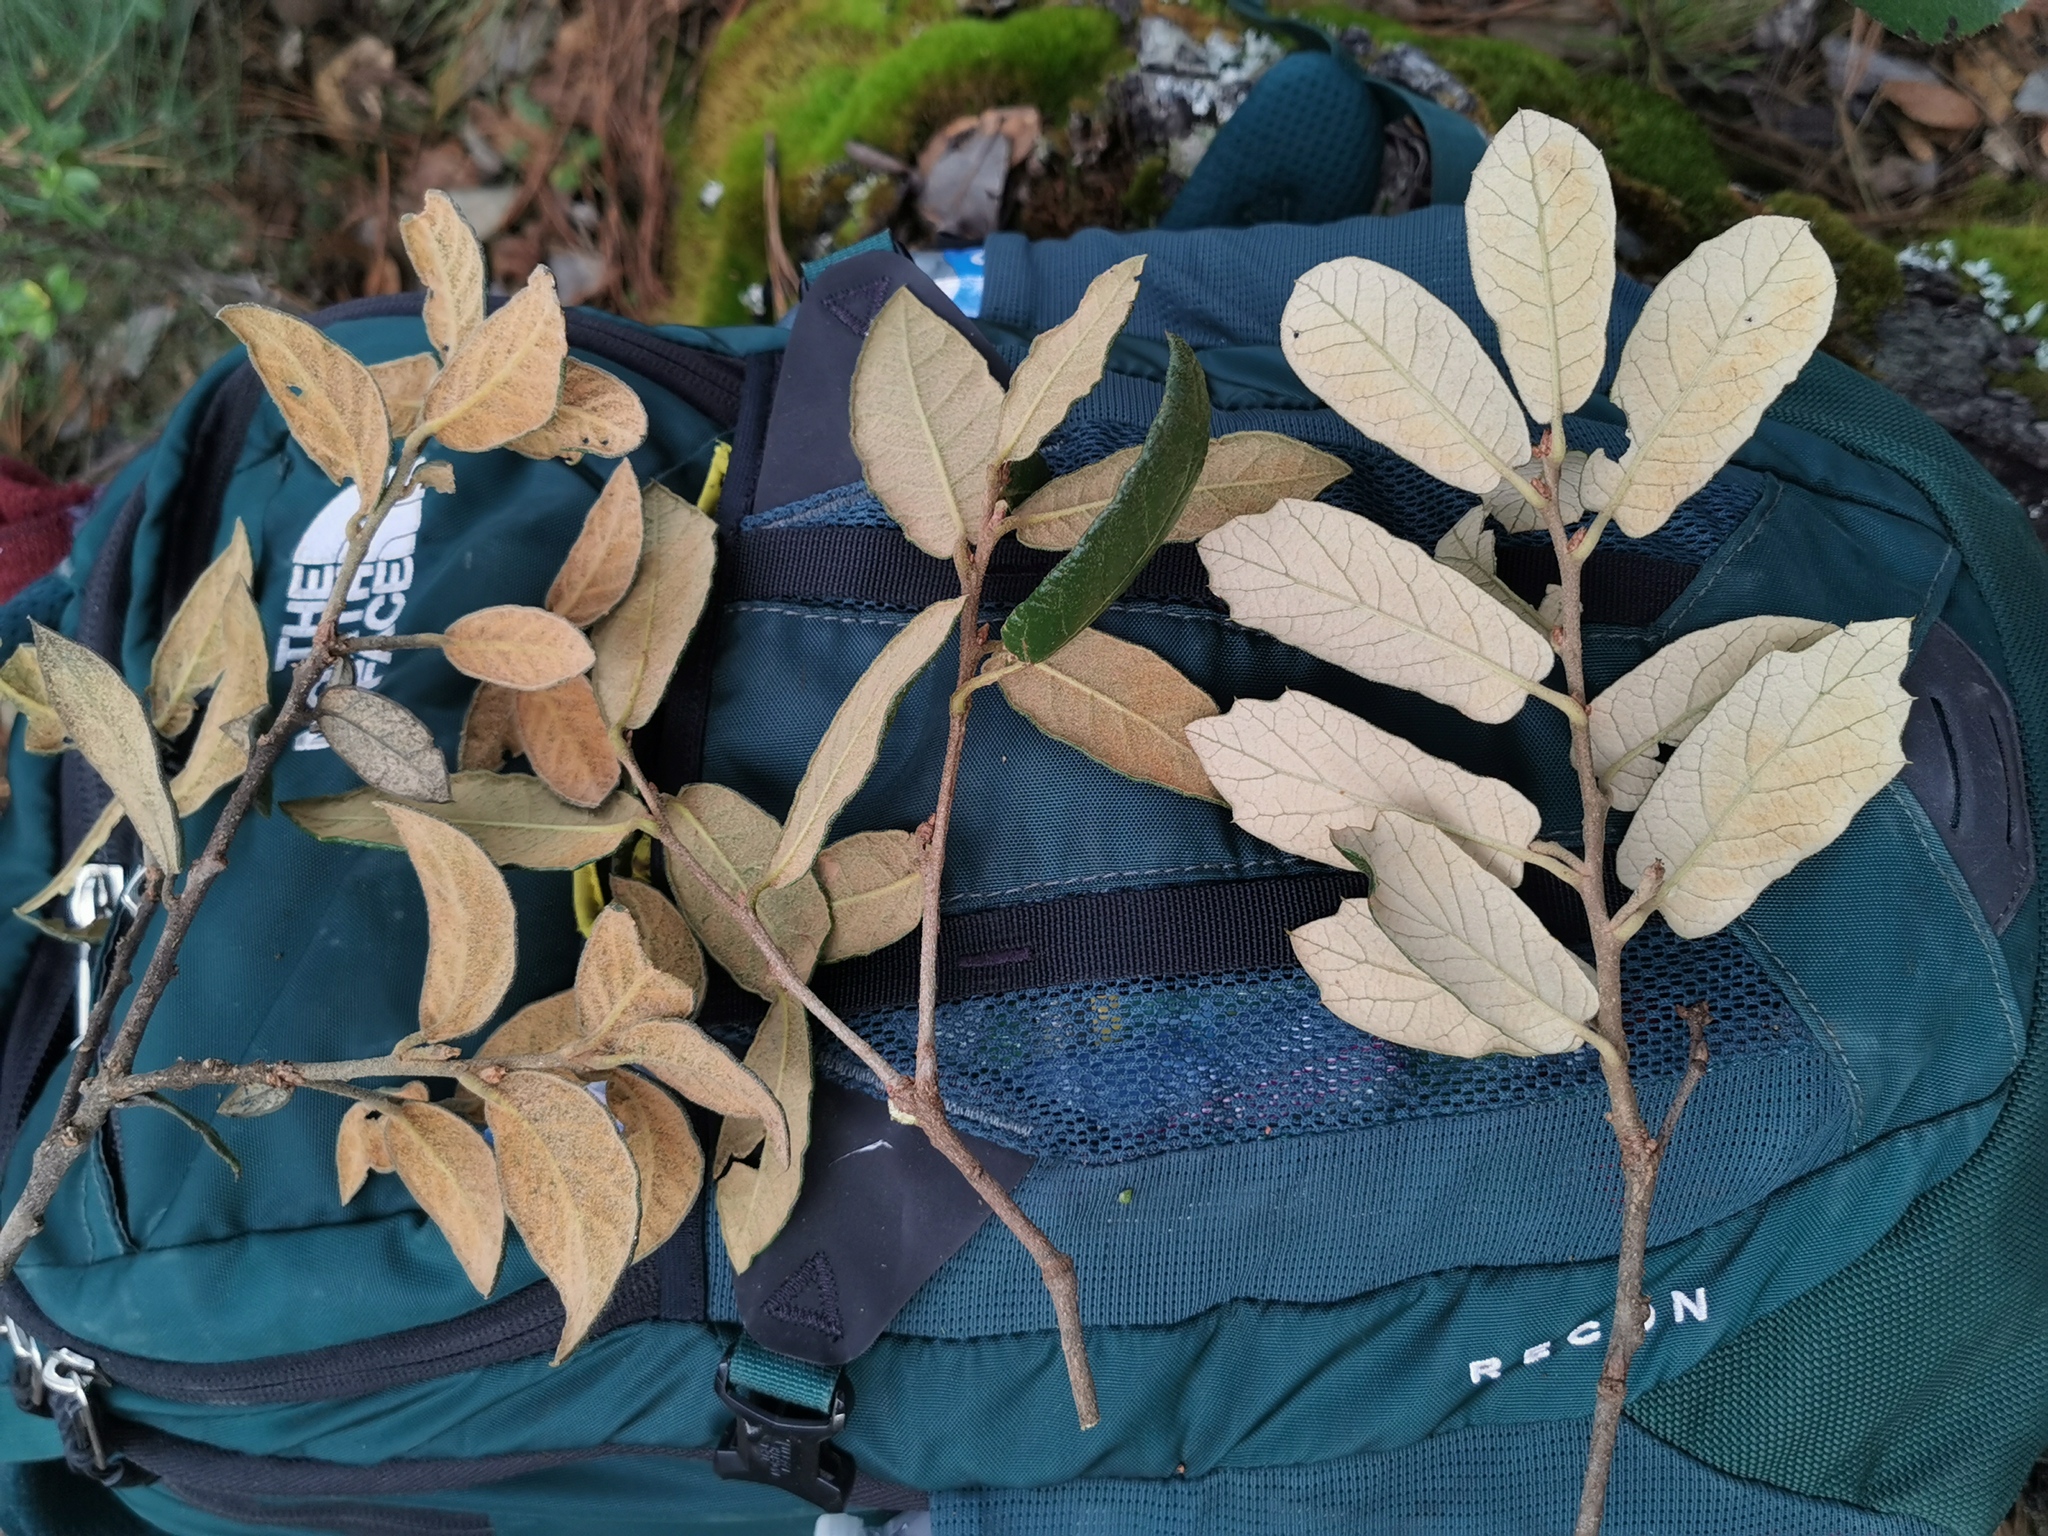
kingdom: Plantae
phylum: Tracheophyta
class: Magnoliopsida
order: Fagales
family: Fagaceae
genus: Quercus
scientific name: Quercus sideroxyla
